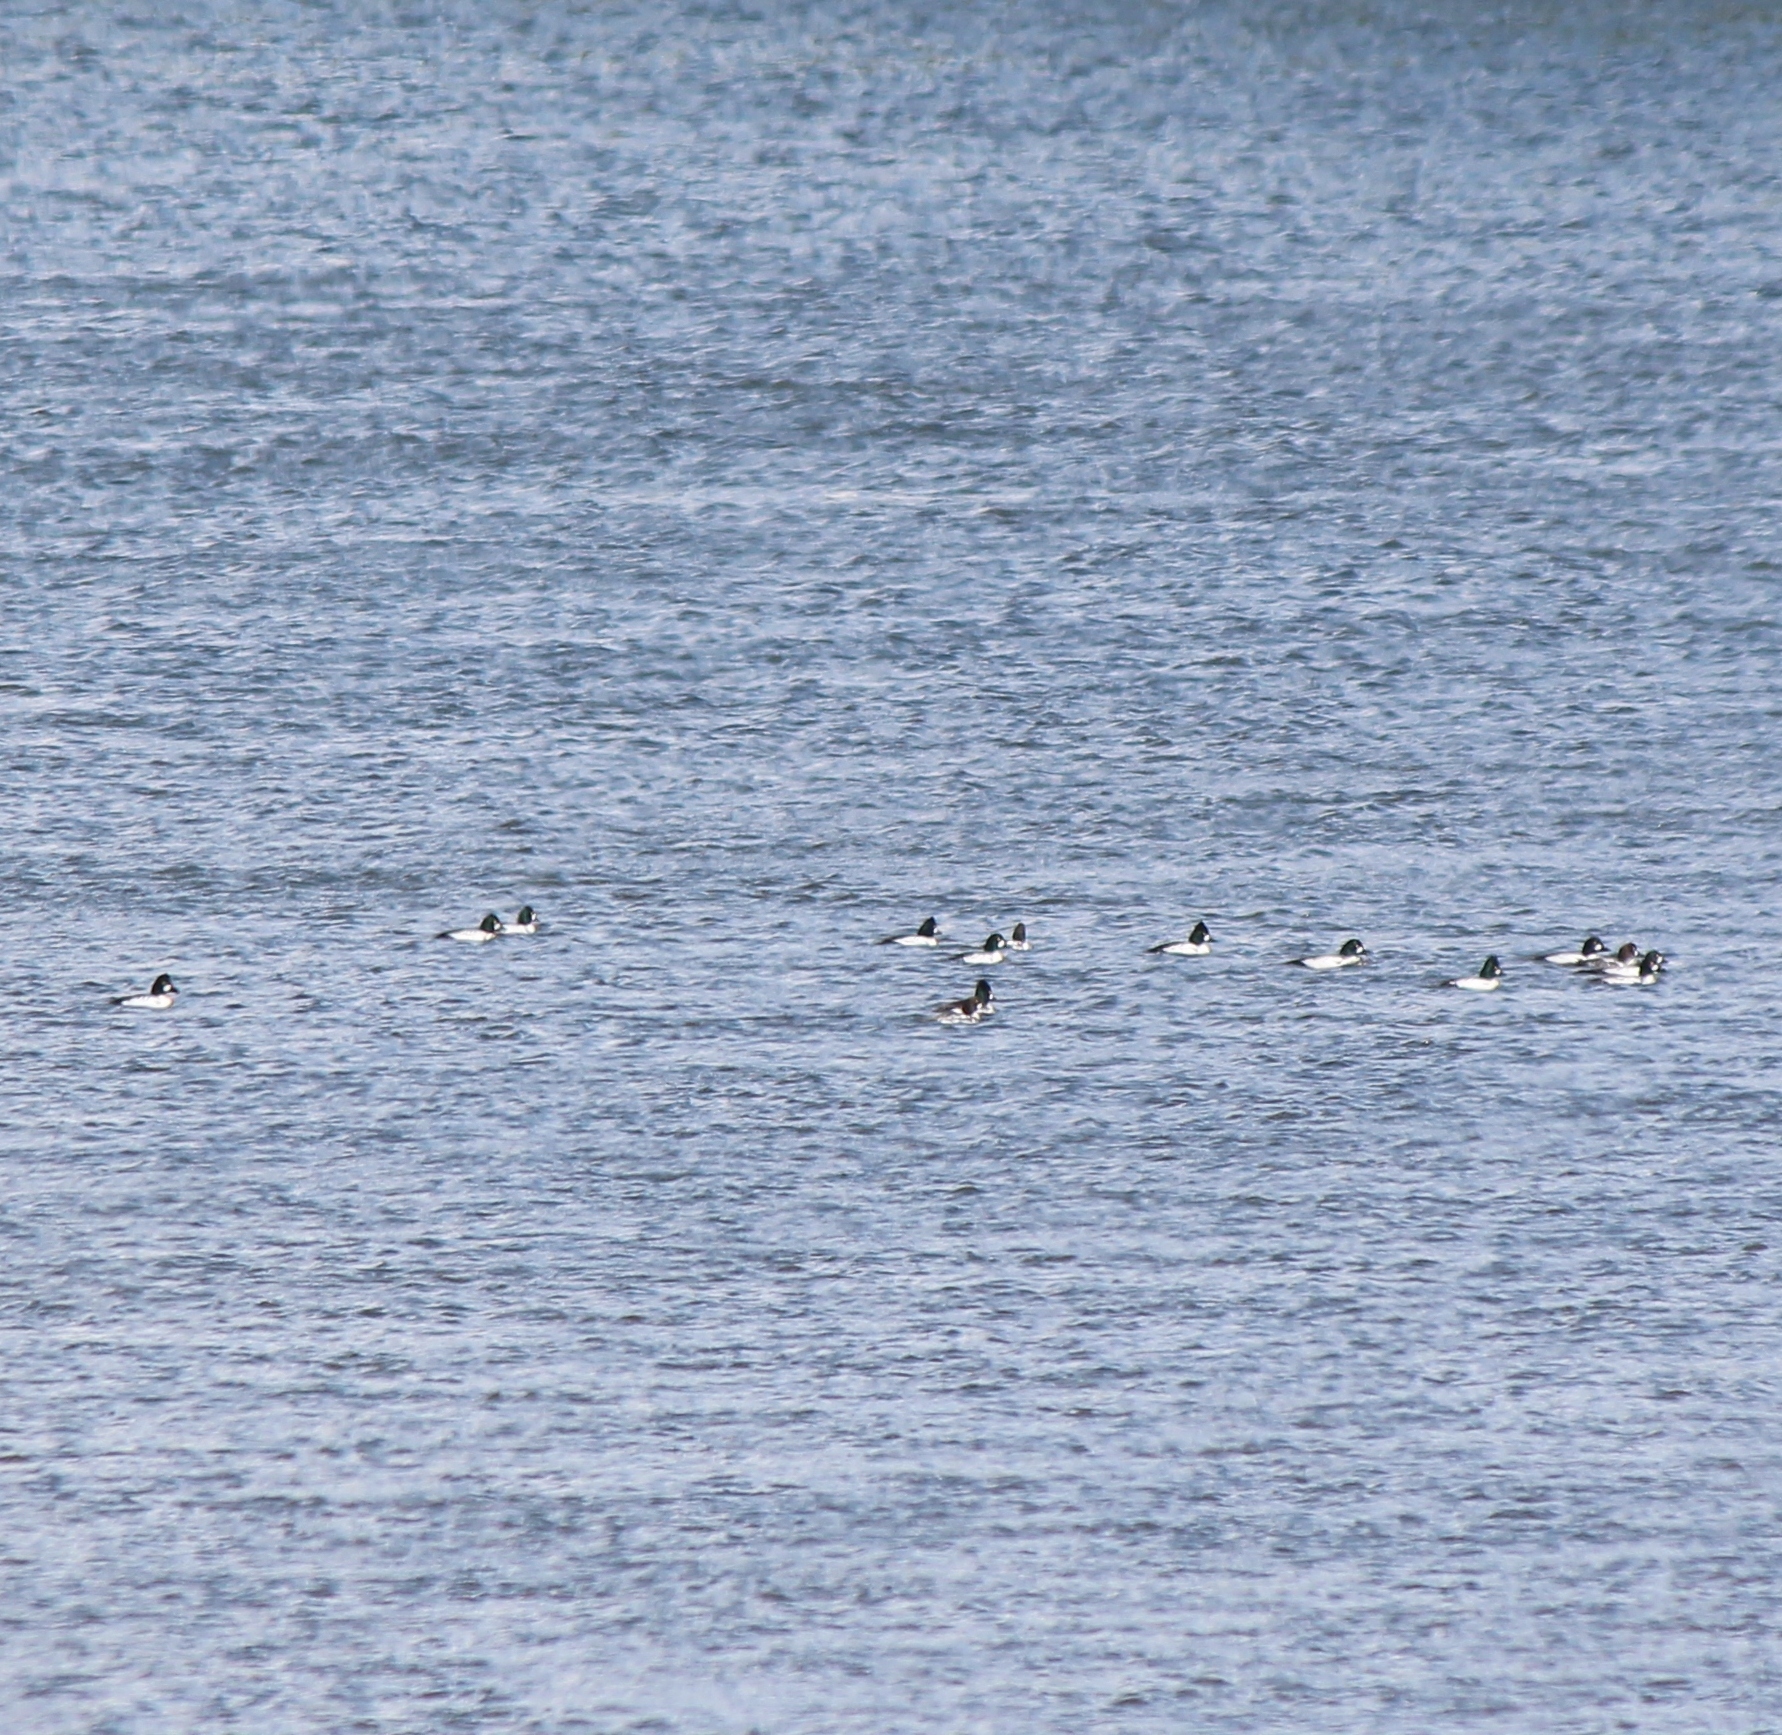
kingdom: Animalia
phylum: Chordata
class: Aves
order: Anseriformes
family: Anatidae
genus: Bucephala
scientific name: Bucephala clangula
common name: Common goldeneye
